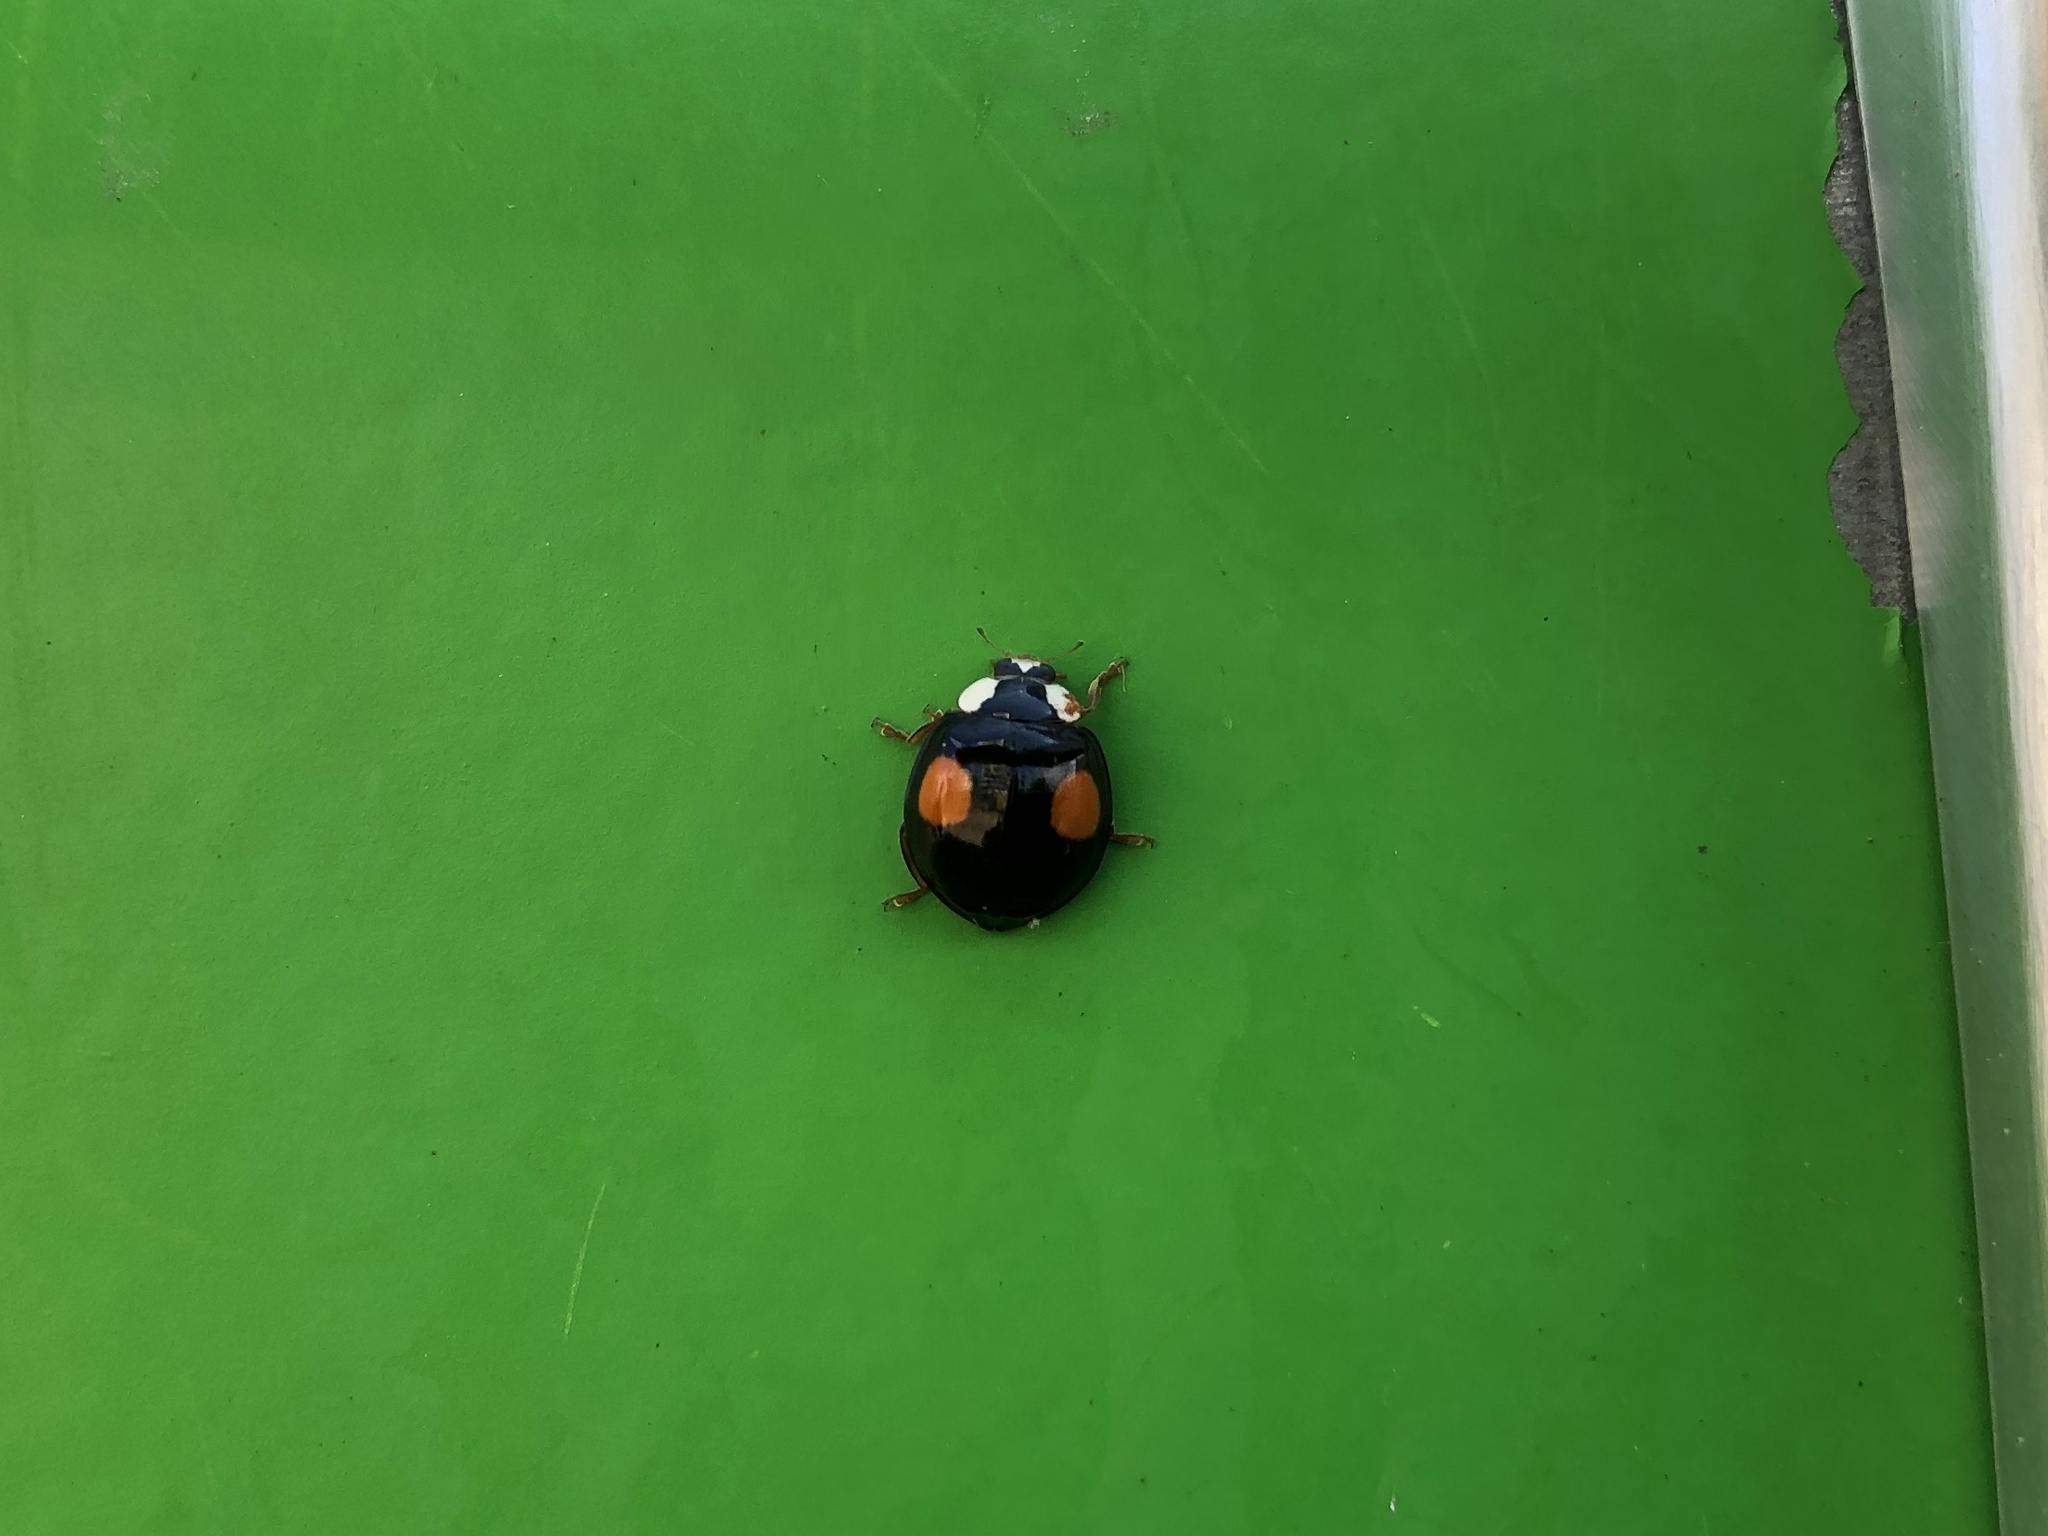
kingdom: Animalia
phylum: Arthropoda
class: Insecta
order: Coleoptera
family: Coccinellidae
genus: Harmonia
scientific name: Harmonia axyridis
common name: Harlequin ladybird
